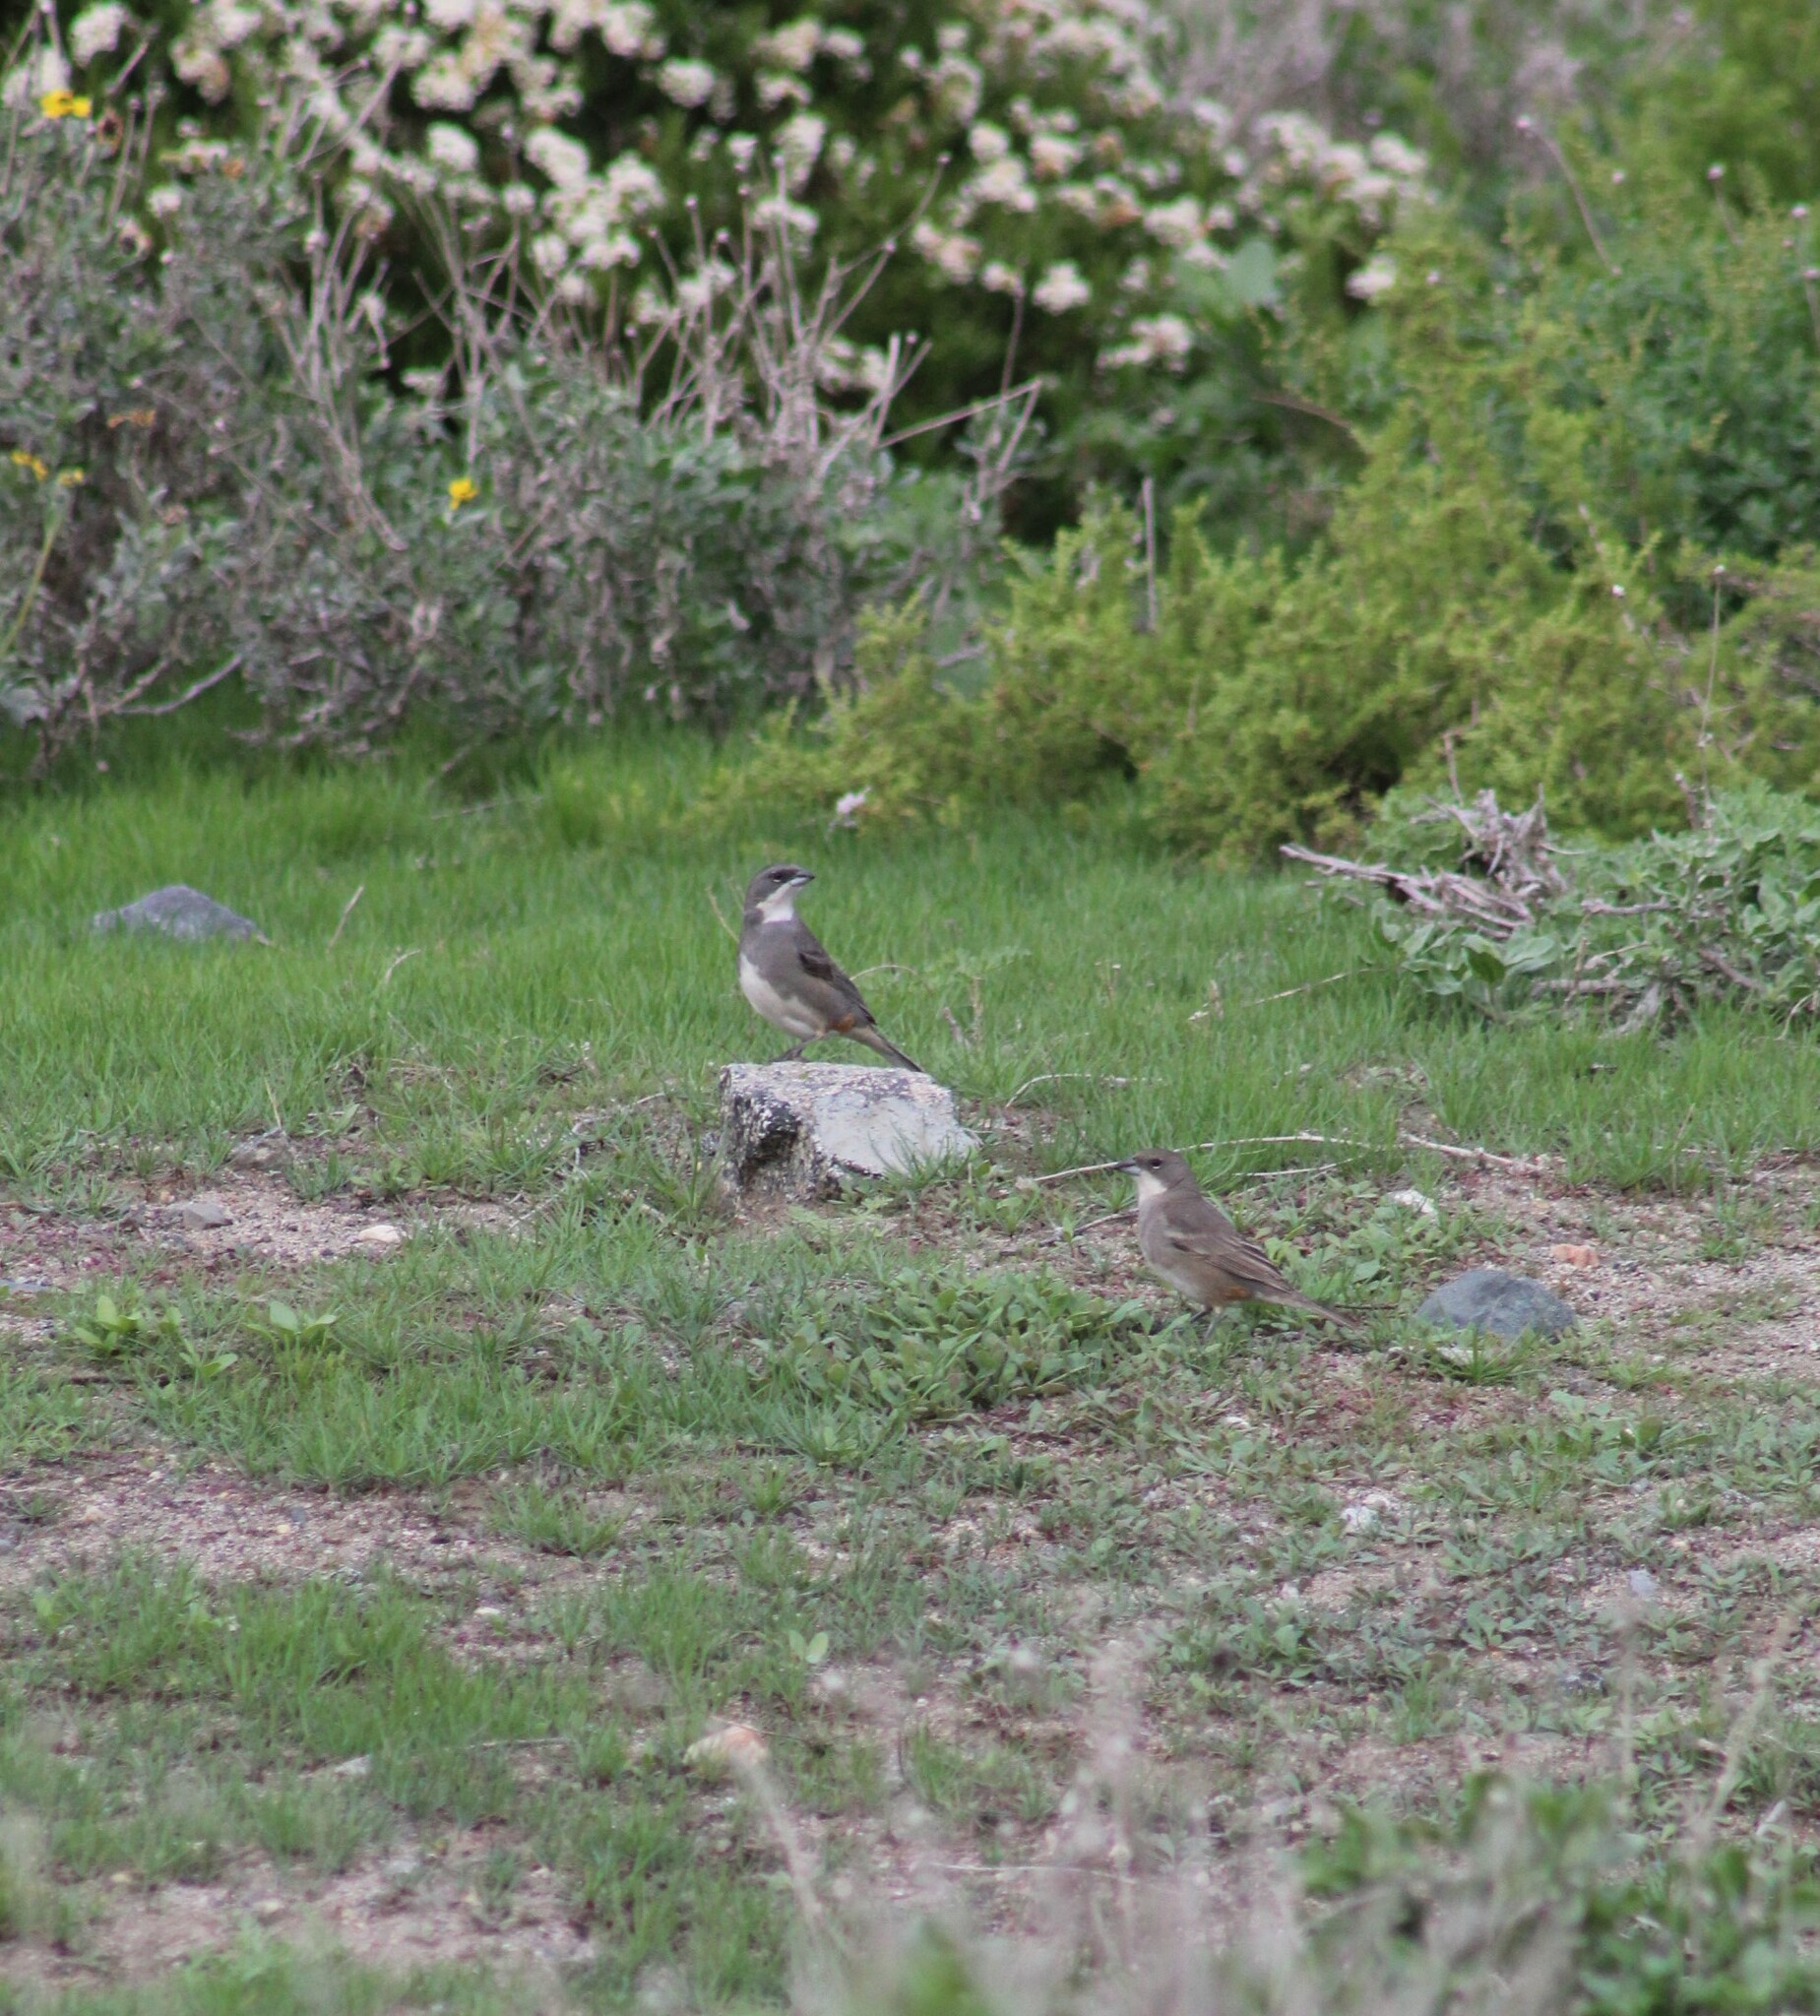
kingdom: Animalia
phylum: Chordata
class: Aves
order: Passeriformes
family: Thraupidae
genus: Diuca
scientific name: Diuca diuca
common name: Common diuca finch
